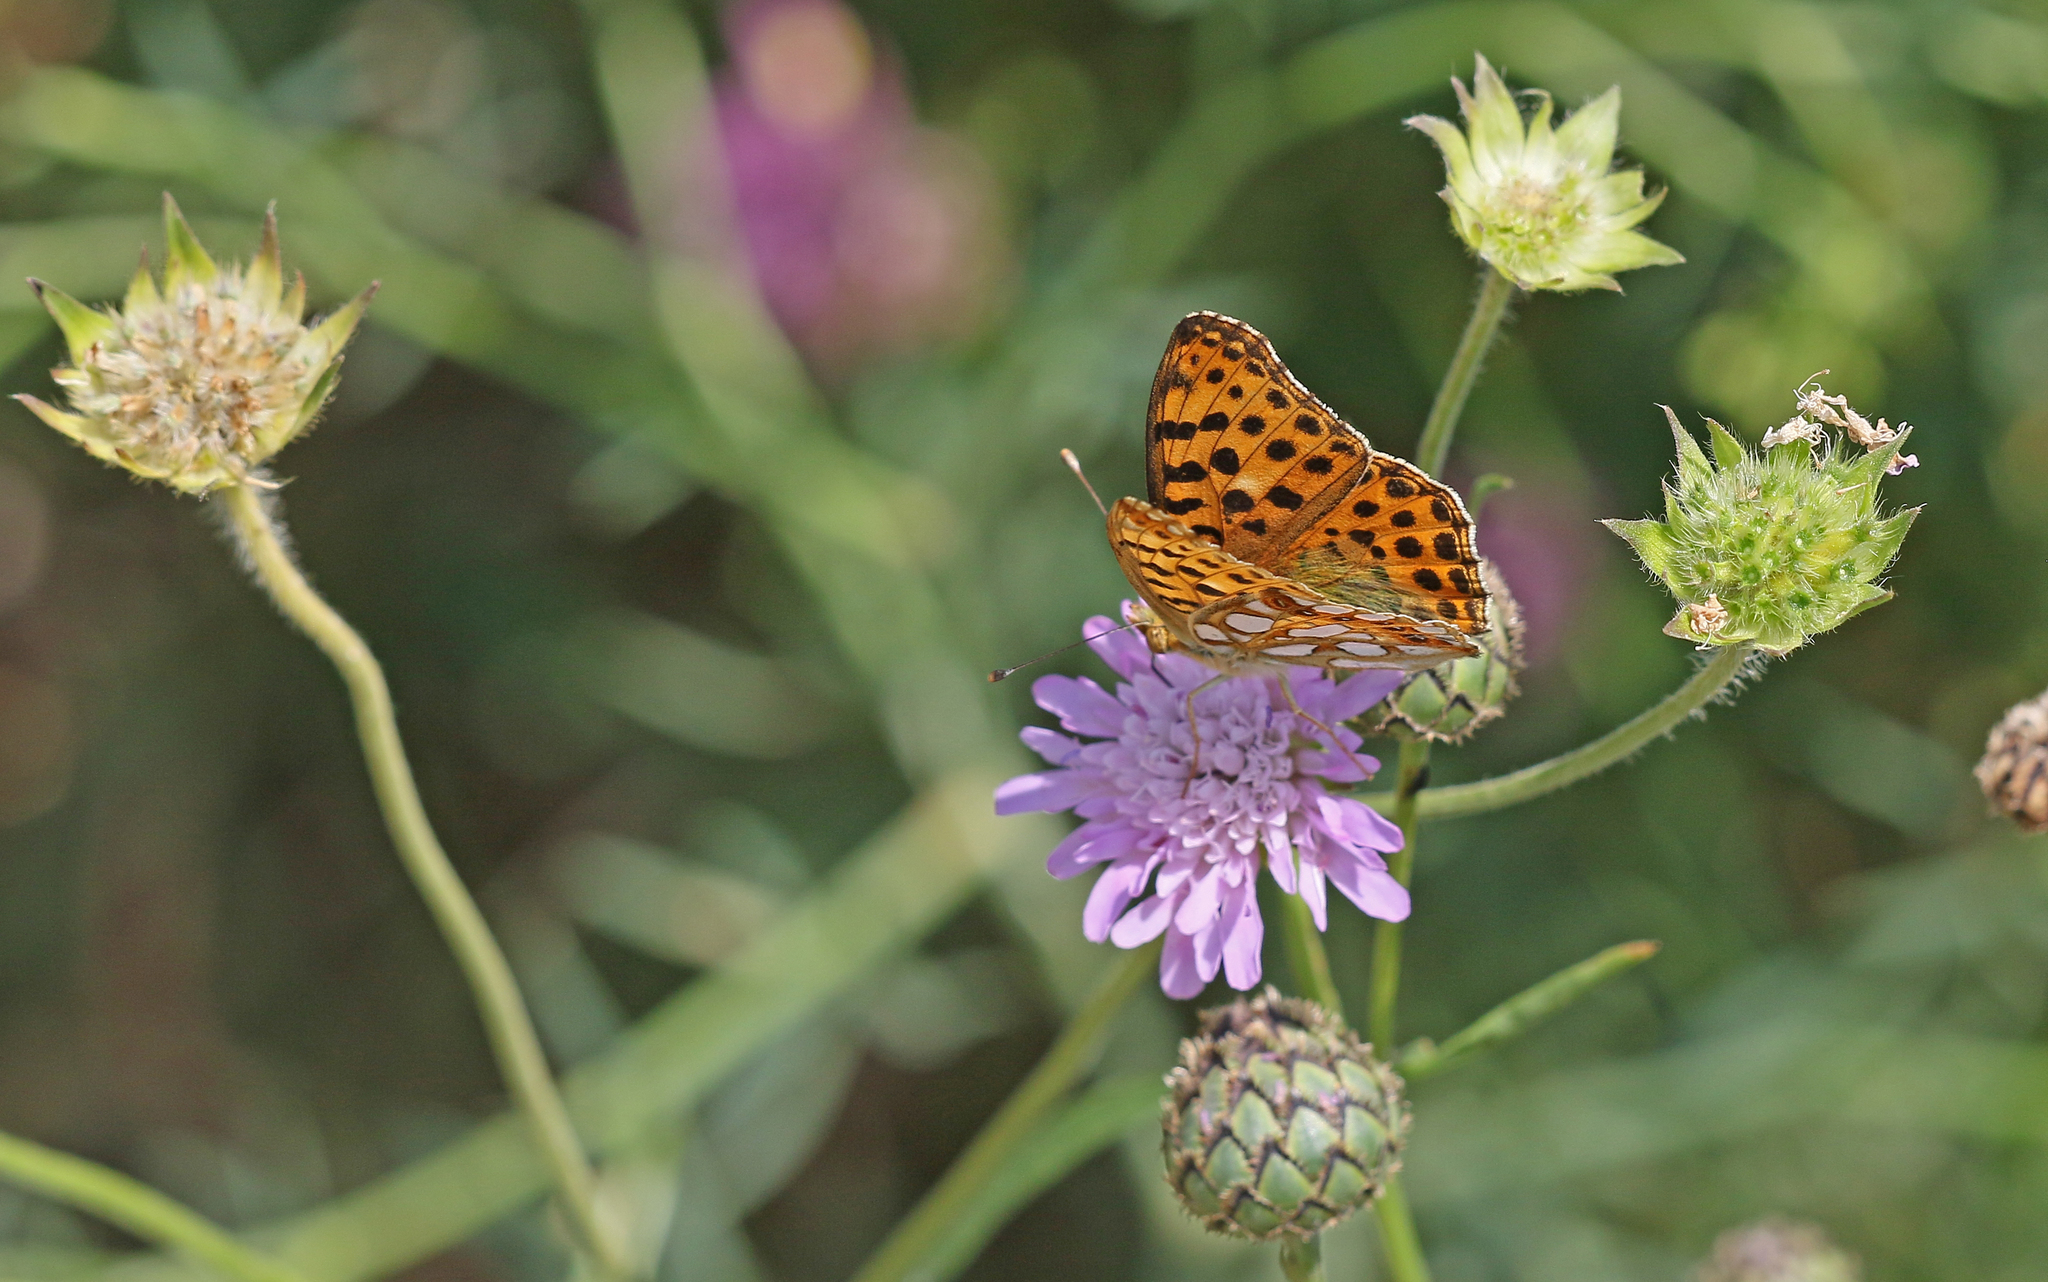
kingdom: Animalia
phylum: Arthropoda
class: Insecta
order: Lepidoptera
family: Nymphalidae
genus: Issoria
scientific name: Issoria lathonia
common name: Queen of spain fritillary
